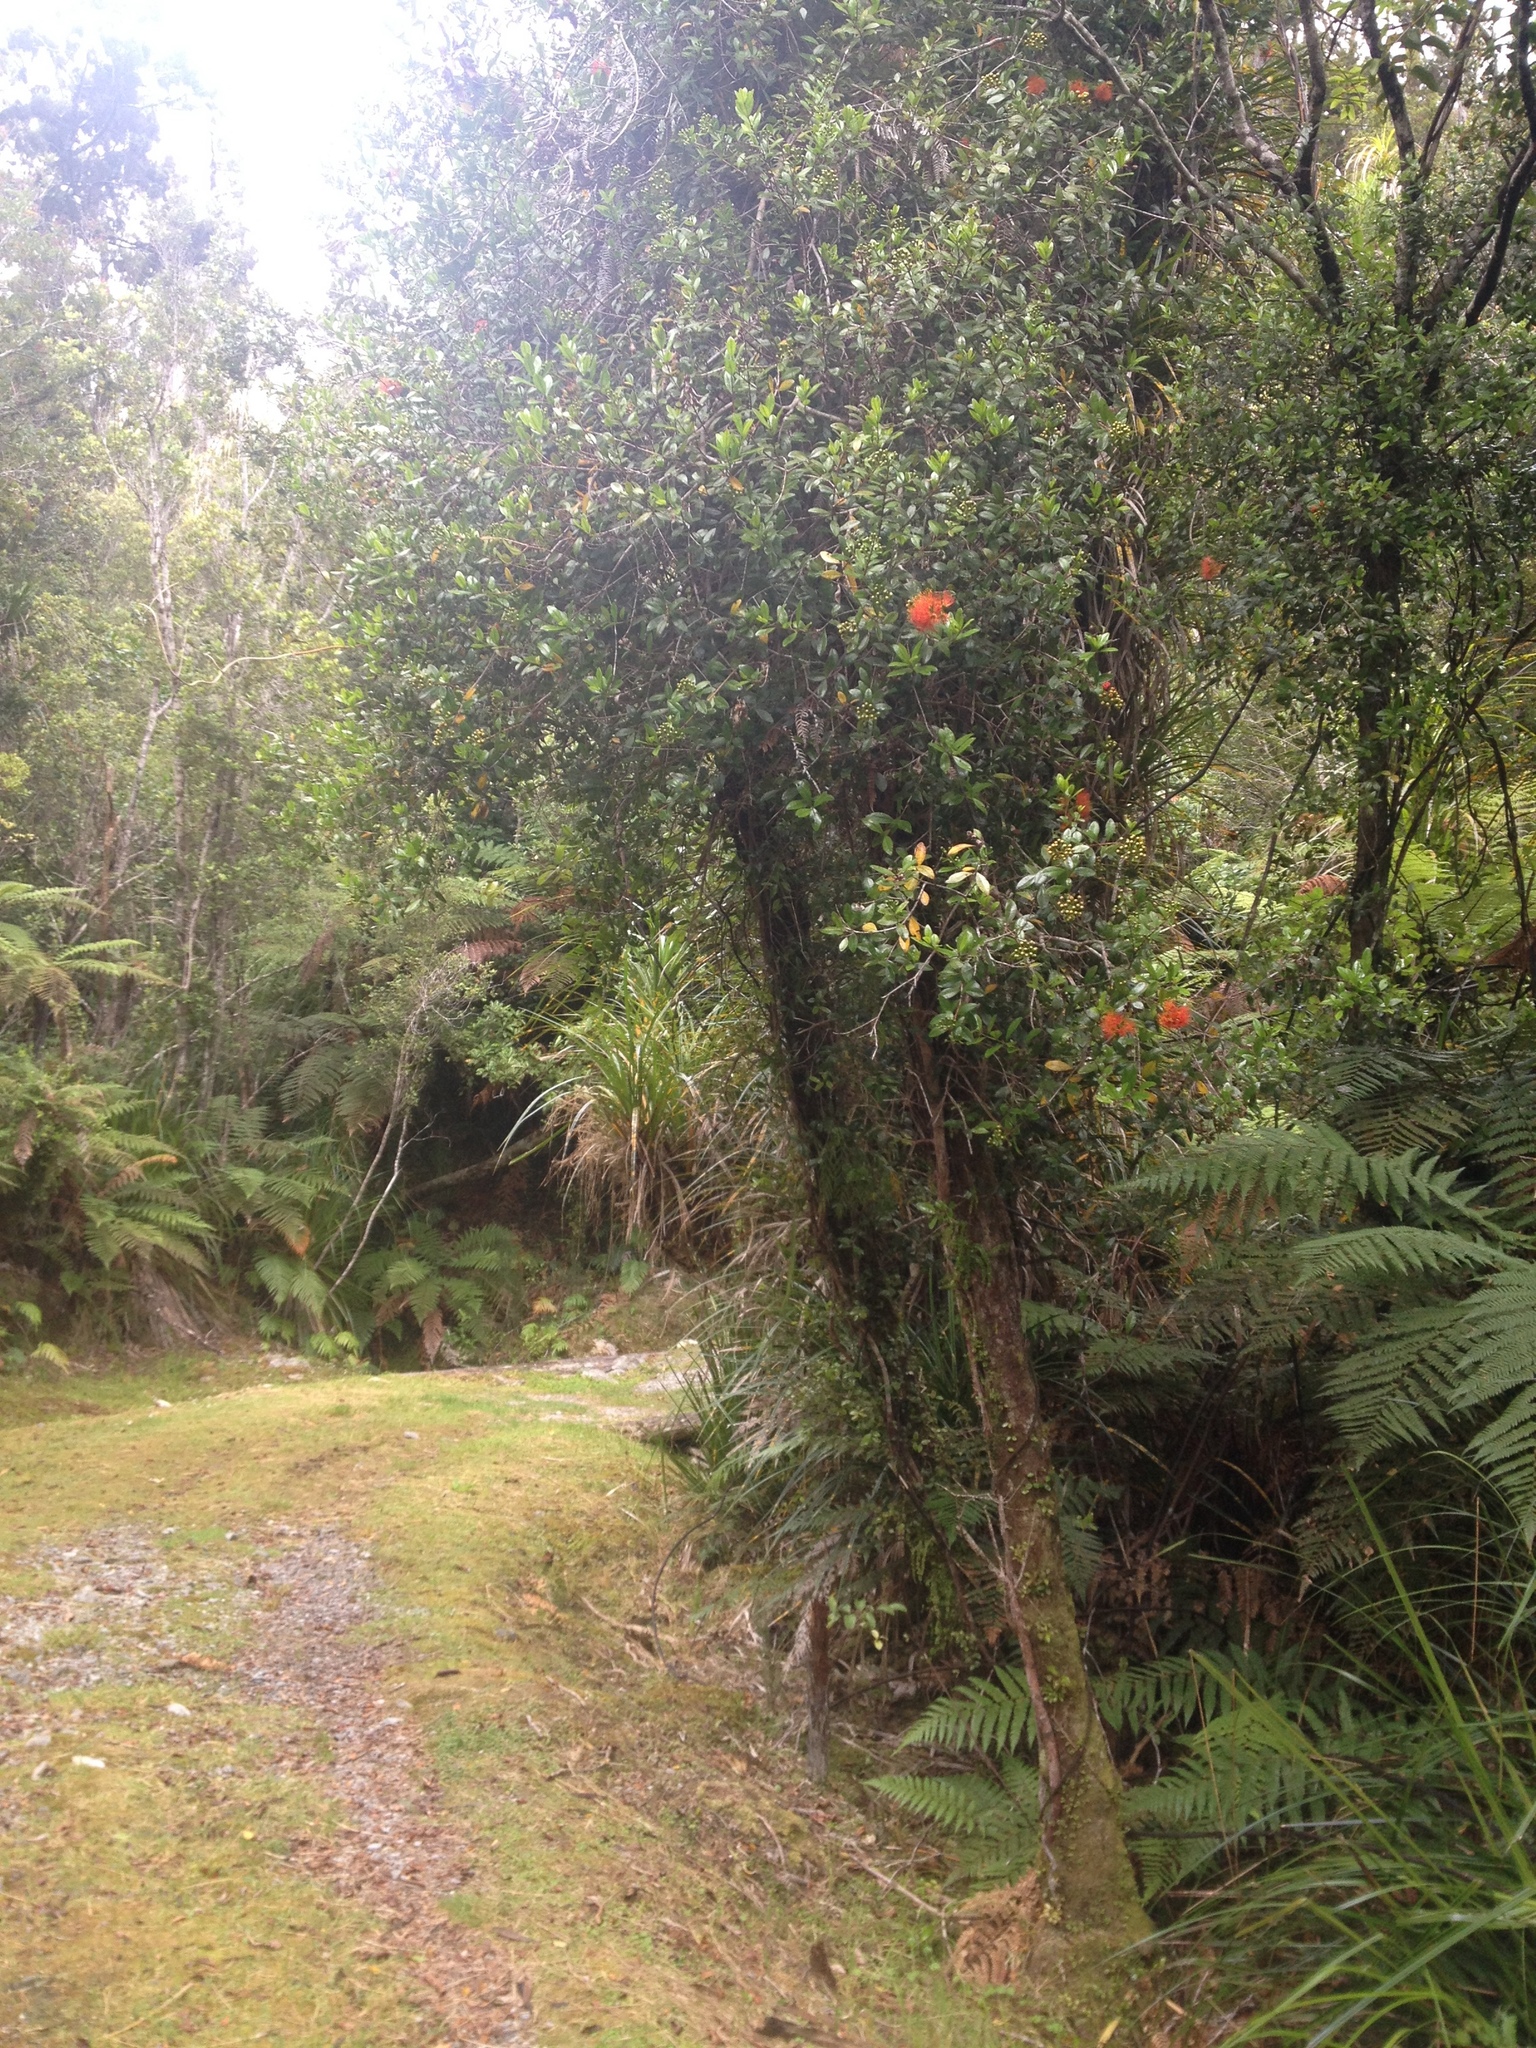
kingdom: Plantae
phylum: Tracheophyta
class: Magnoliopsida
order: Myrtales
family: Myrtaceae
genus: Metrosideros
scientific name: Metrosideros fulgens
